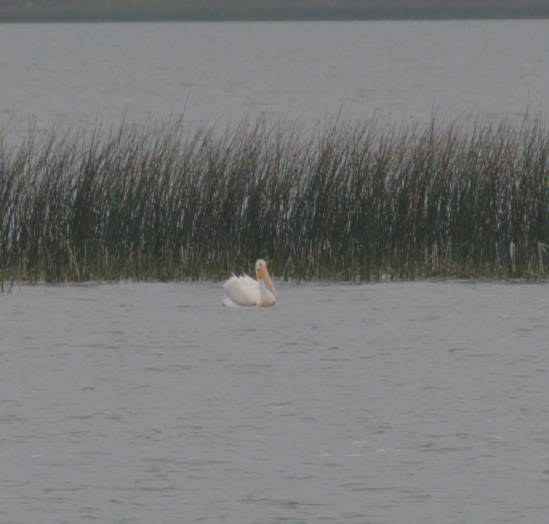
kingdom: Animalia
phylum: Chordata
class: Aves
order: Pelecaniformes
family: Pelecanidae
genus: Pelecanus
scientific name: Pelecanus erythrorhynchos
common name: American white pelican
